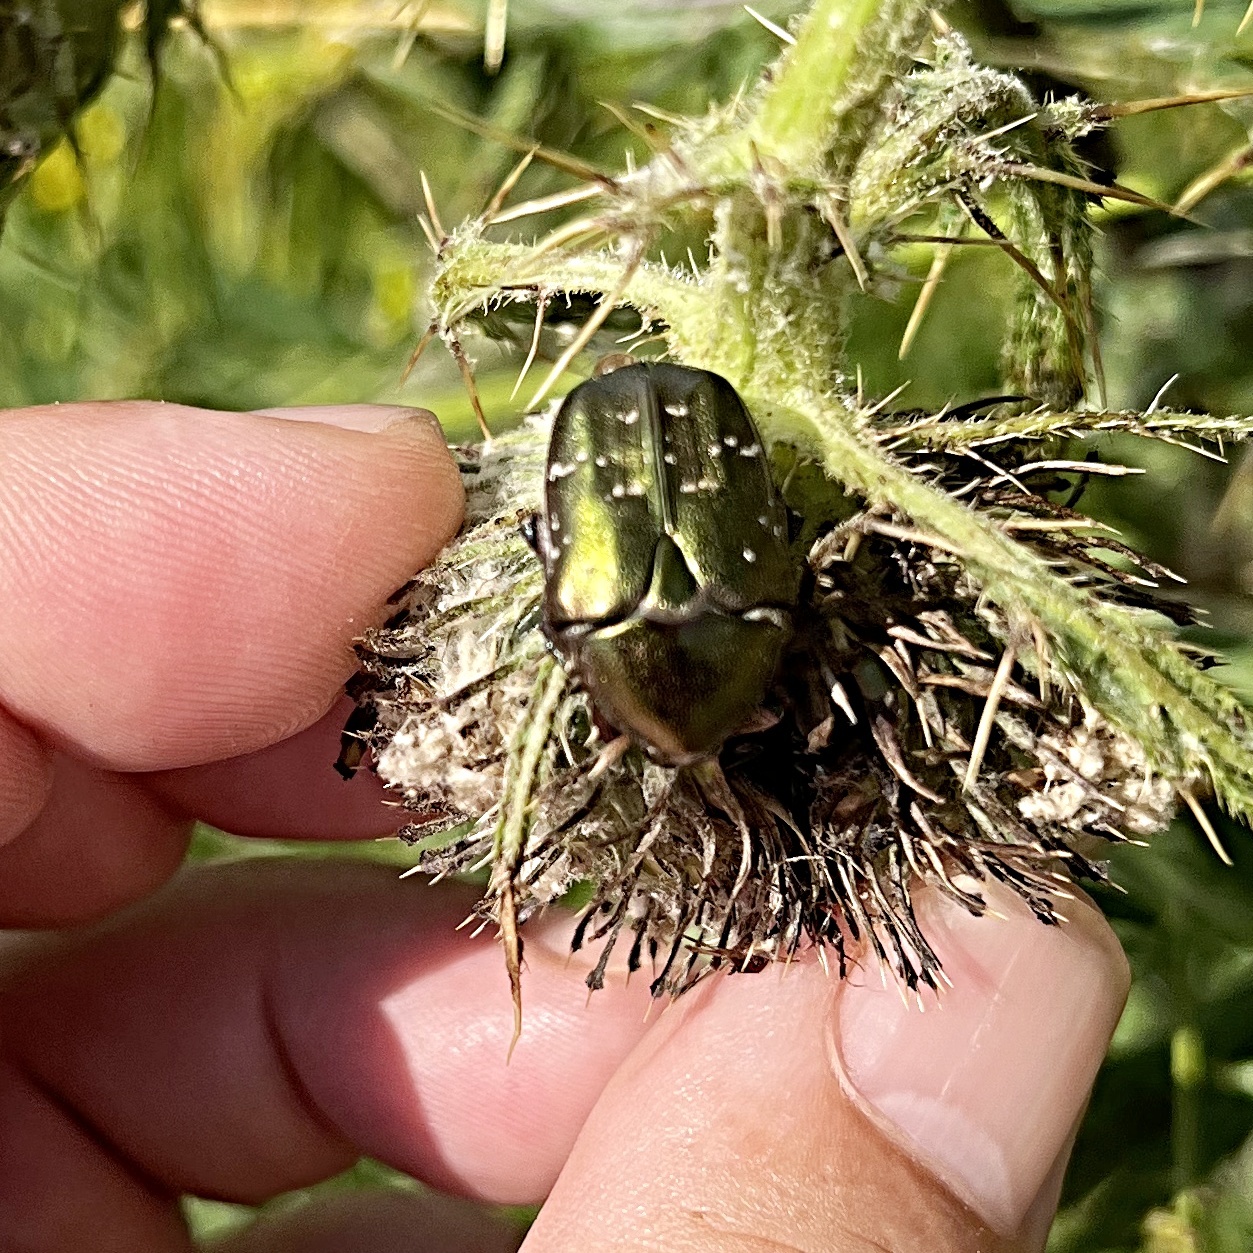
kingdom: Animalia
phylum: Arthropoda
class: Insecta
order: Coleoptera
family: Scarabaeidae
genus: Protaetia
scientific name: Protaetia cuprea
